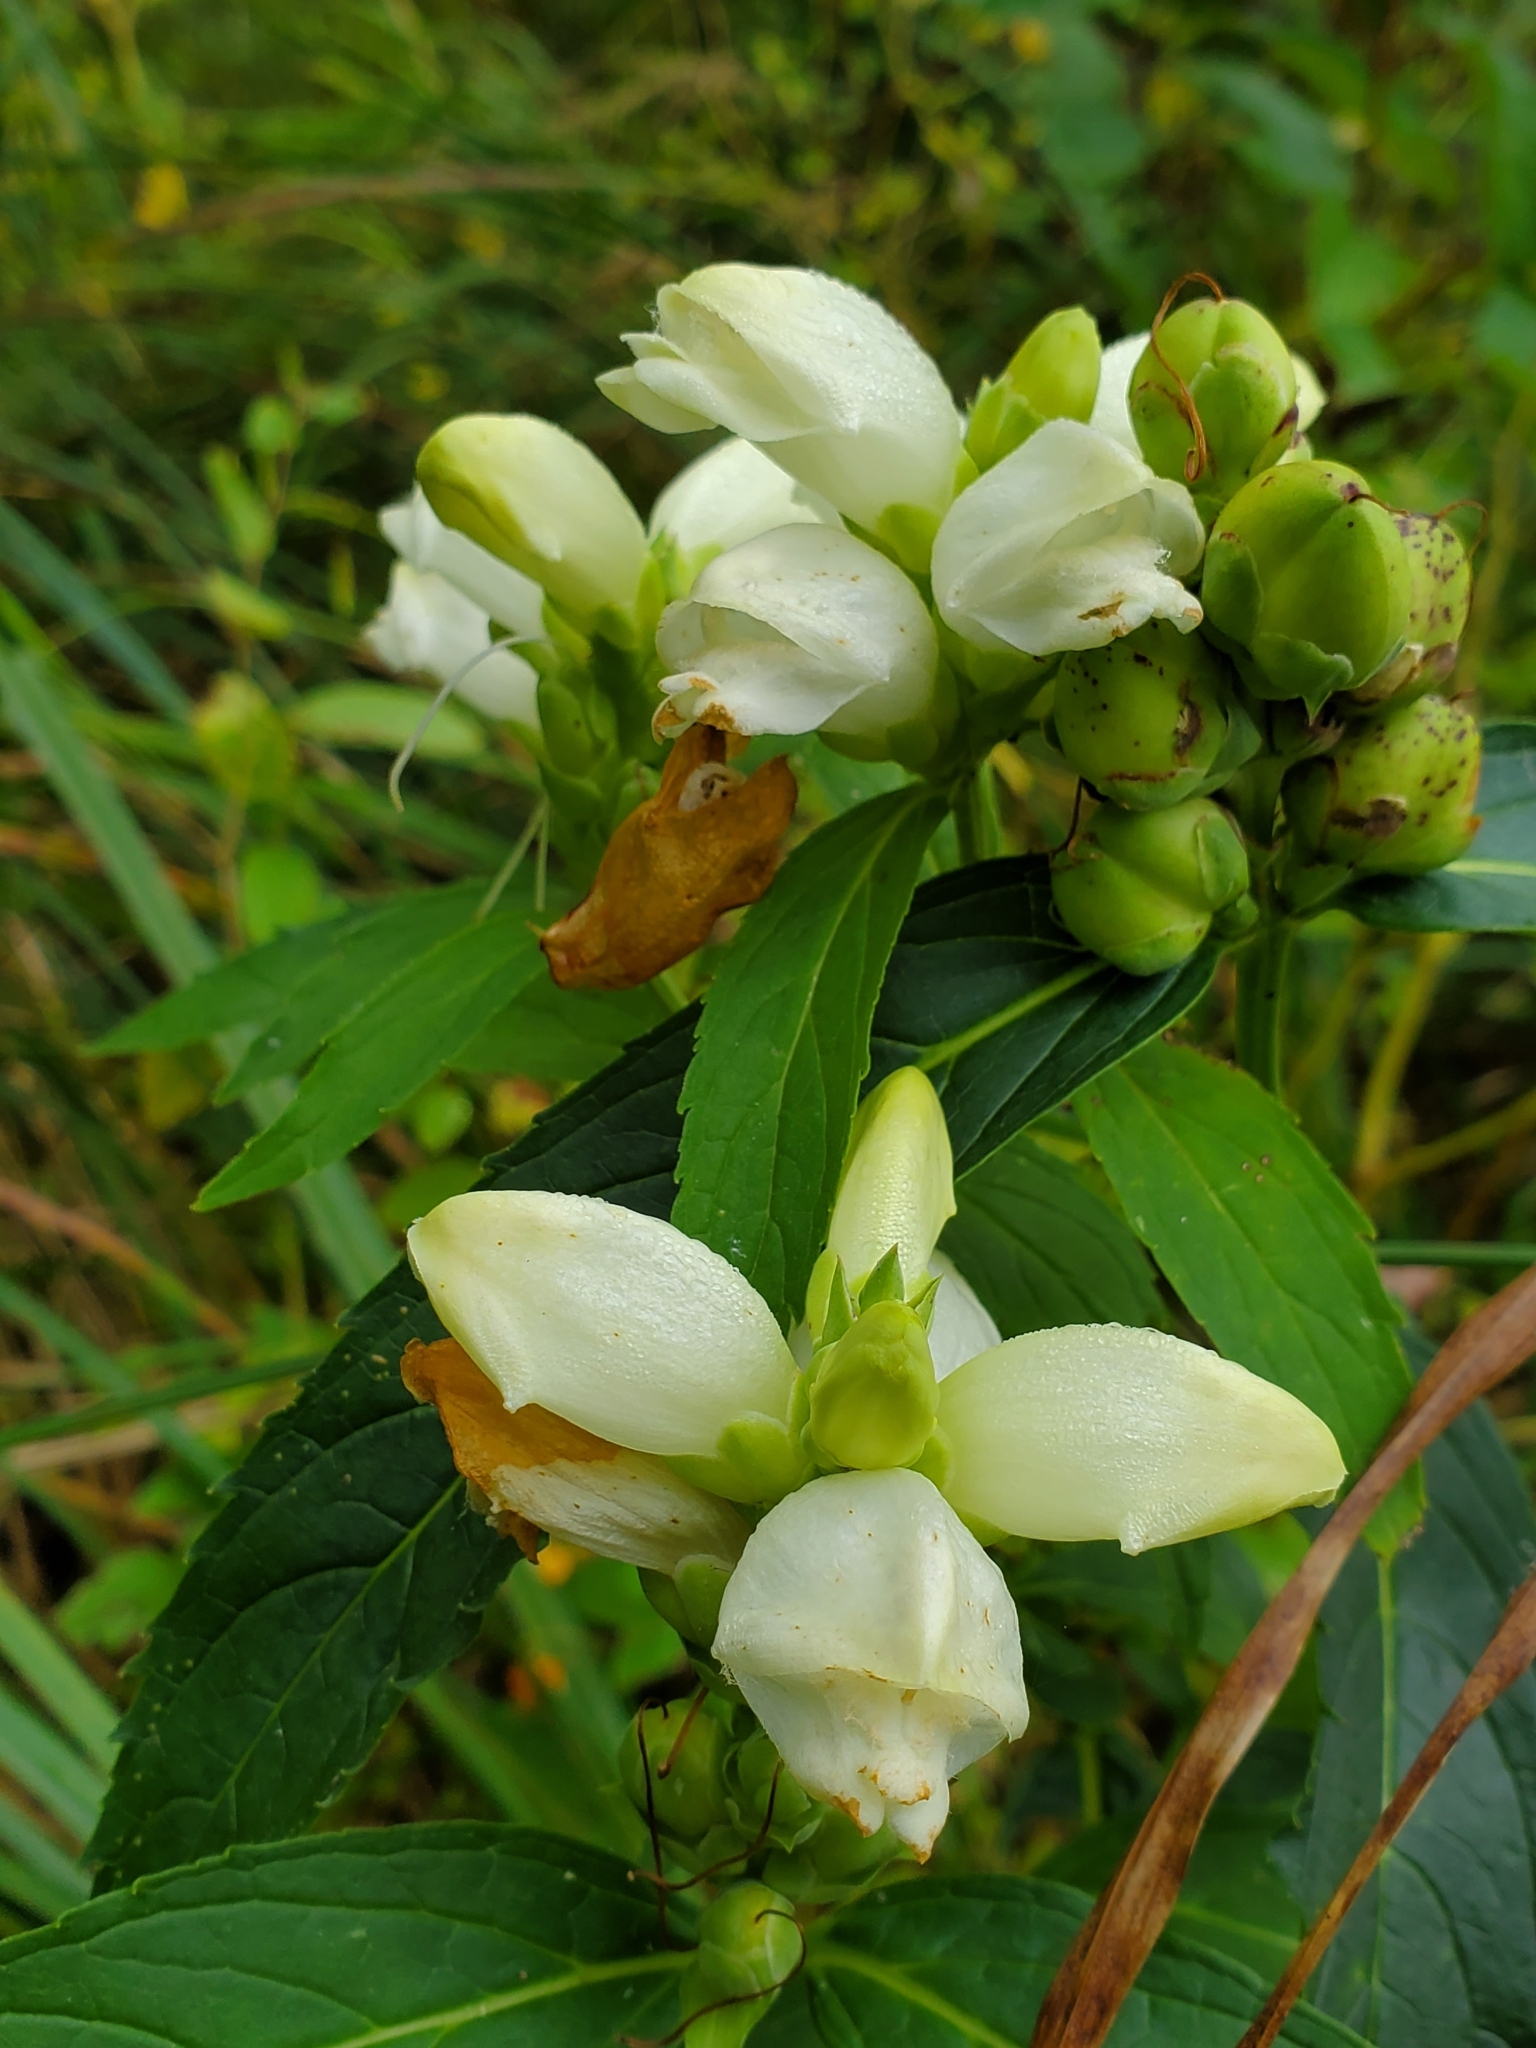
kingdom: Plantae
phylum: Tracheophyta
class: Magnoliopsida
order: Lamiales
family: Plantaginaceae
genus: Chelone
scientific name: Chelone glabra
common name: Snakehead
